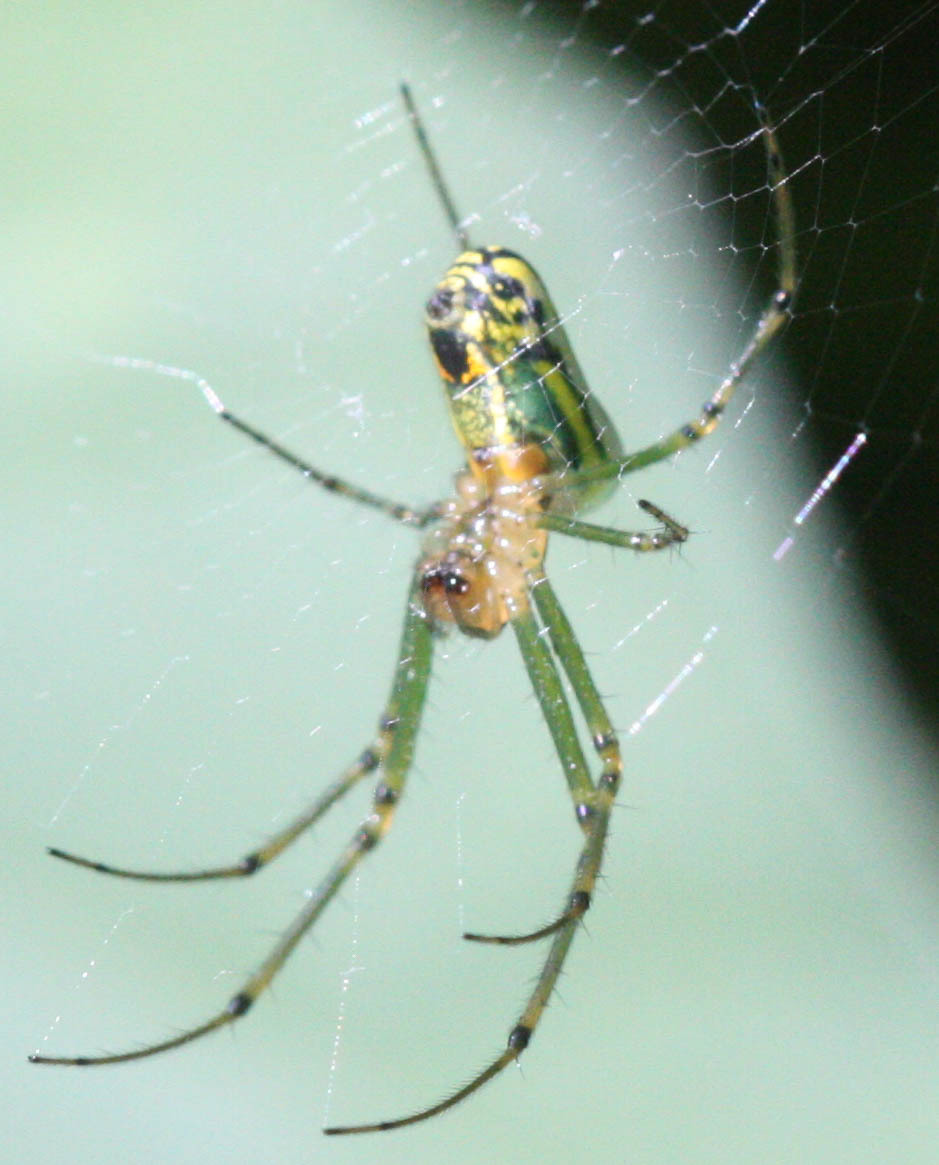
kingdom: Animalia
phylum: Arthropoda
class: Arachnida
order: Araneae
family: Tetragnathidae
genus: Leucauge
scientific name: Leucauge venusta
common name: Longjawed orb weavers
